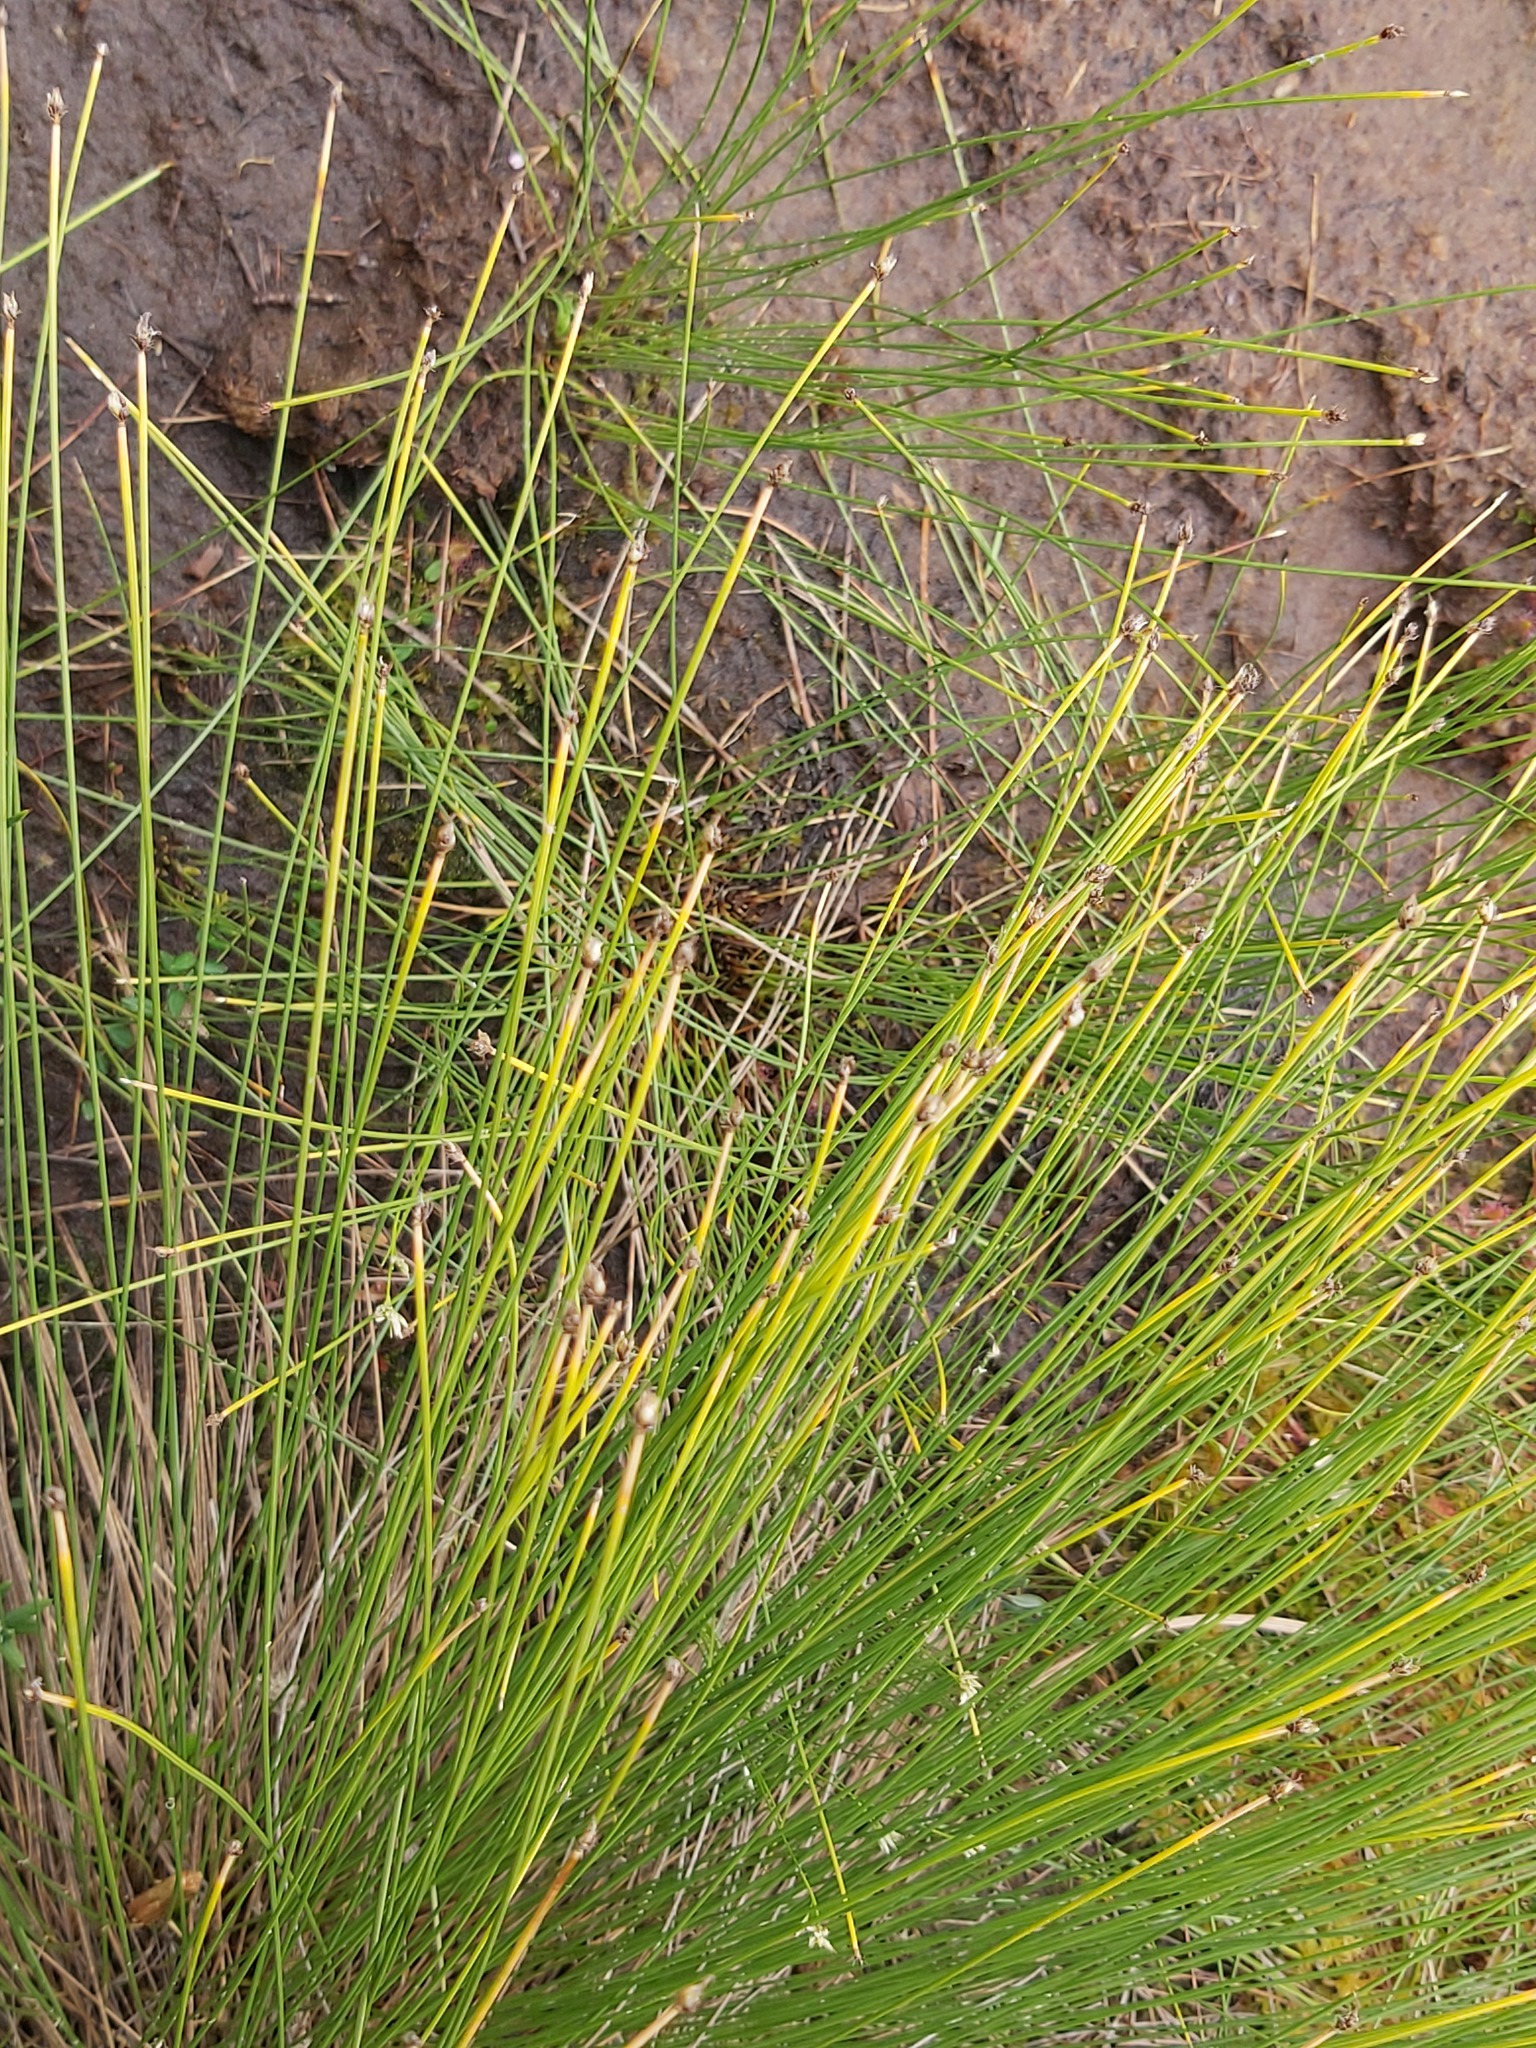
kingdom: Plantae
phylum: Tracheophyta
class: Liliopsida
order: Poales
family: Cyperaceae
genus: Trichophorum
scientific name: Trichophorum cespitosum
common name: Cespitose bulrush
